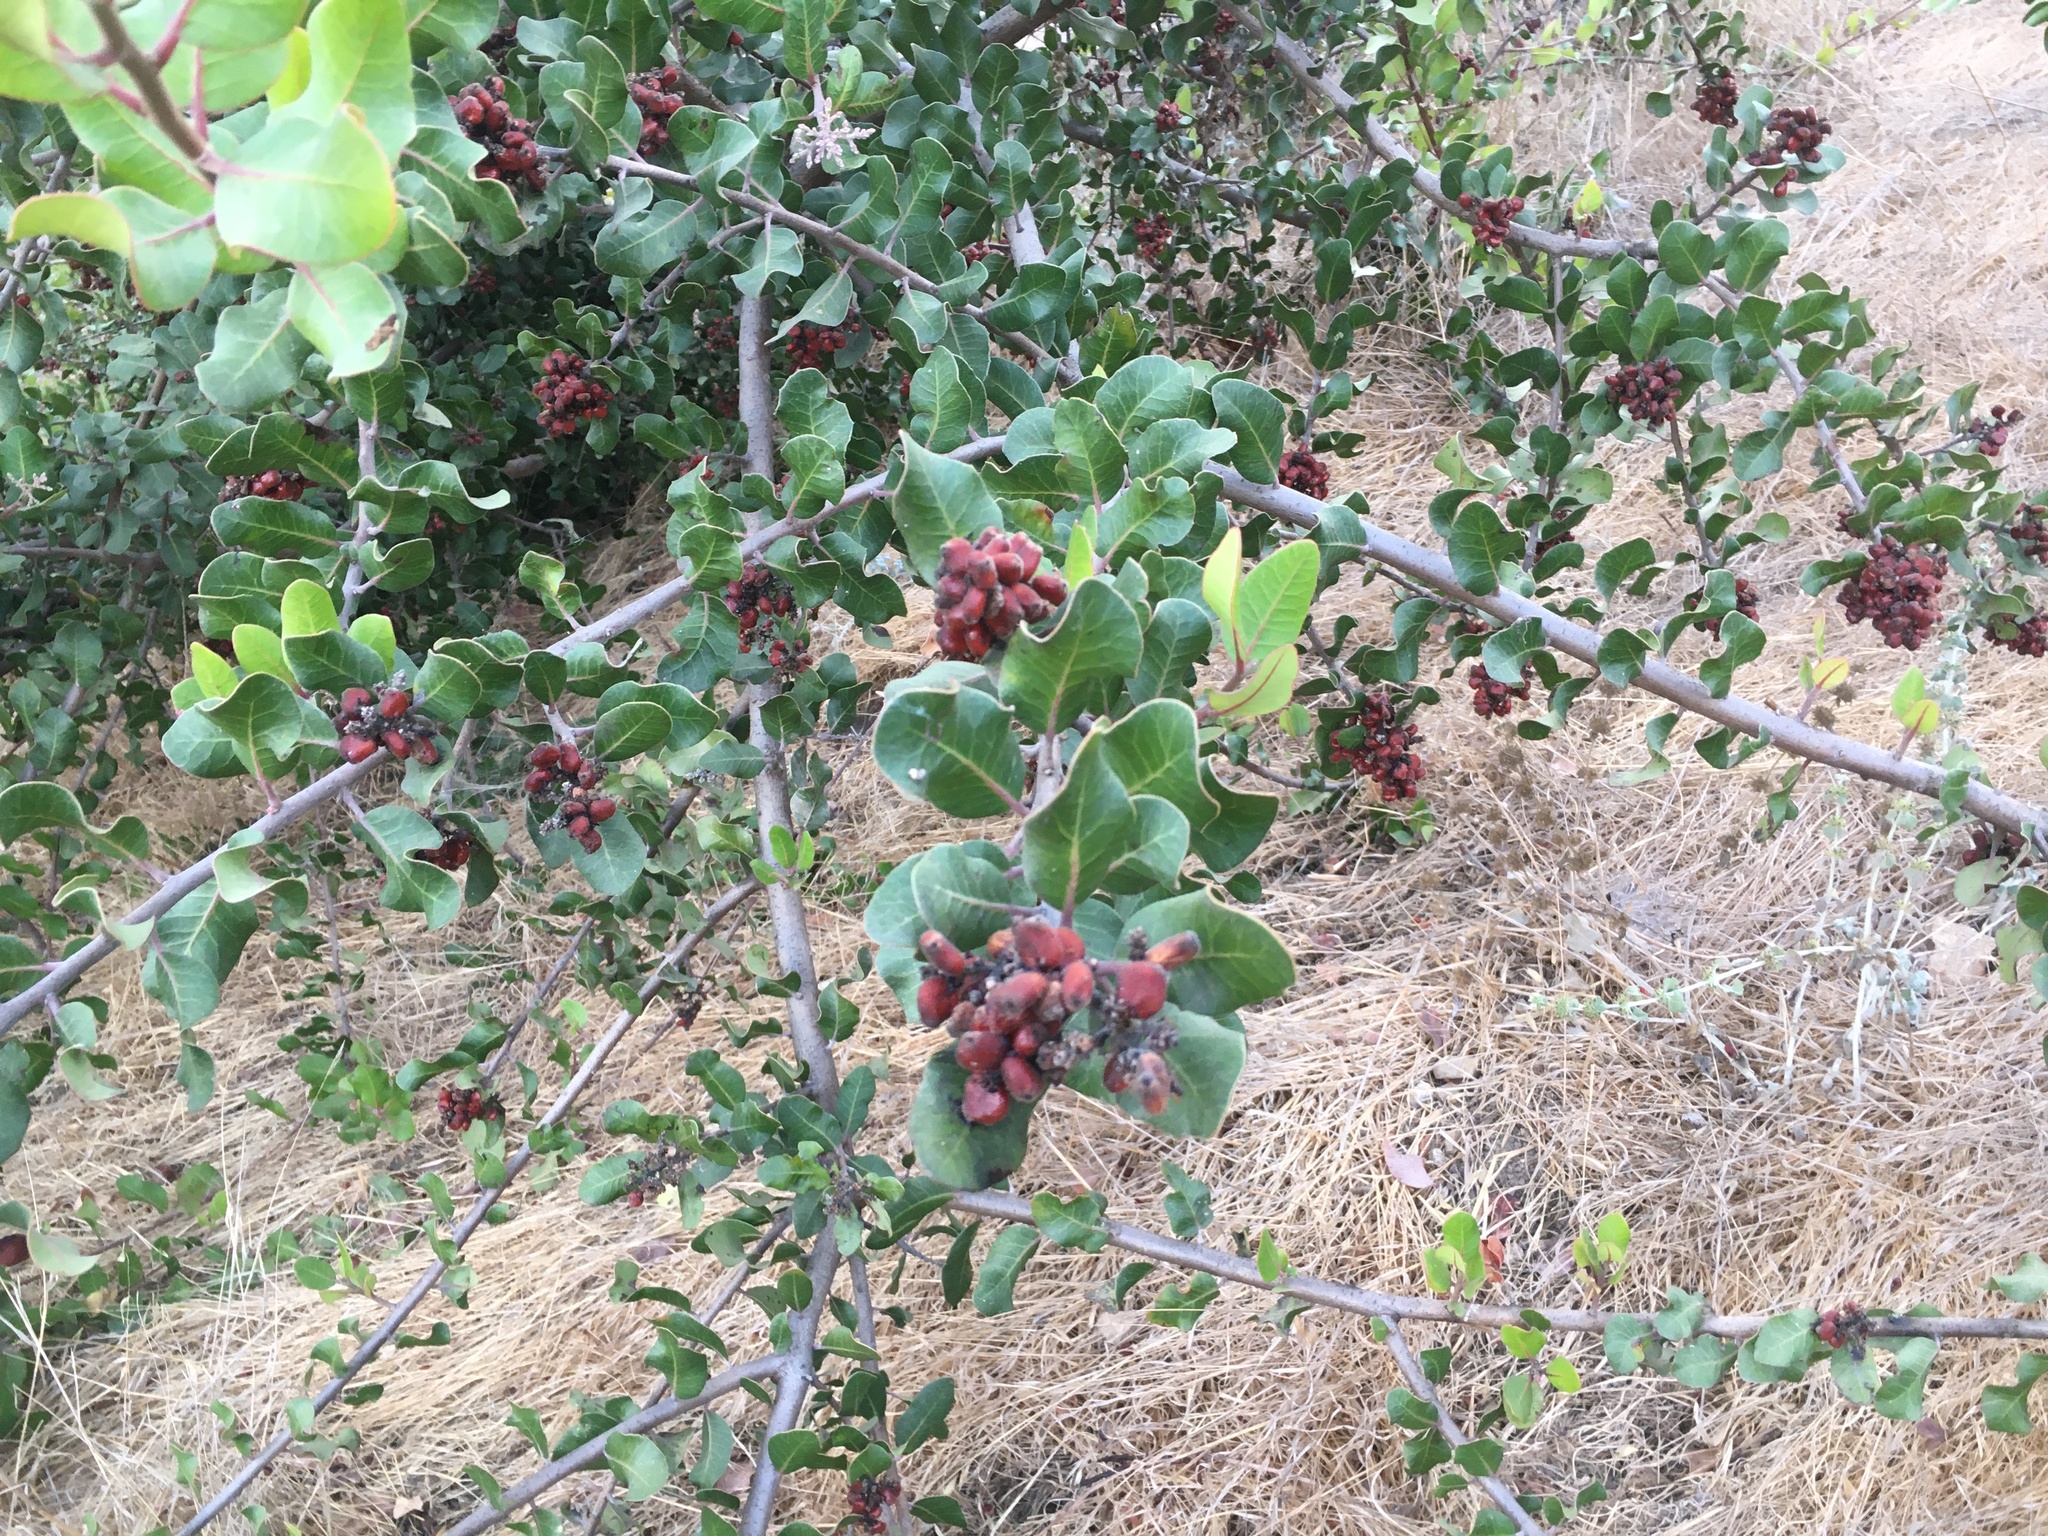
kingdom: Plantae
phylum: Tracheophyta
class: Magnoliopsida
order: Sapindales
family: Anacardiaceae
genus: Rhus
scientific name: Rhus integrifolia
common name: Lemonade sumac
